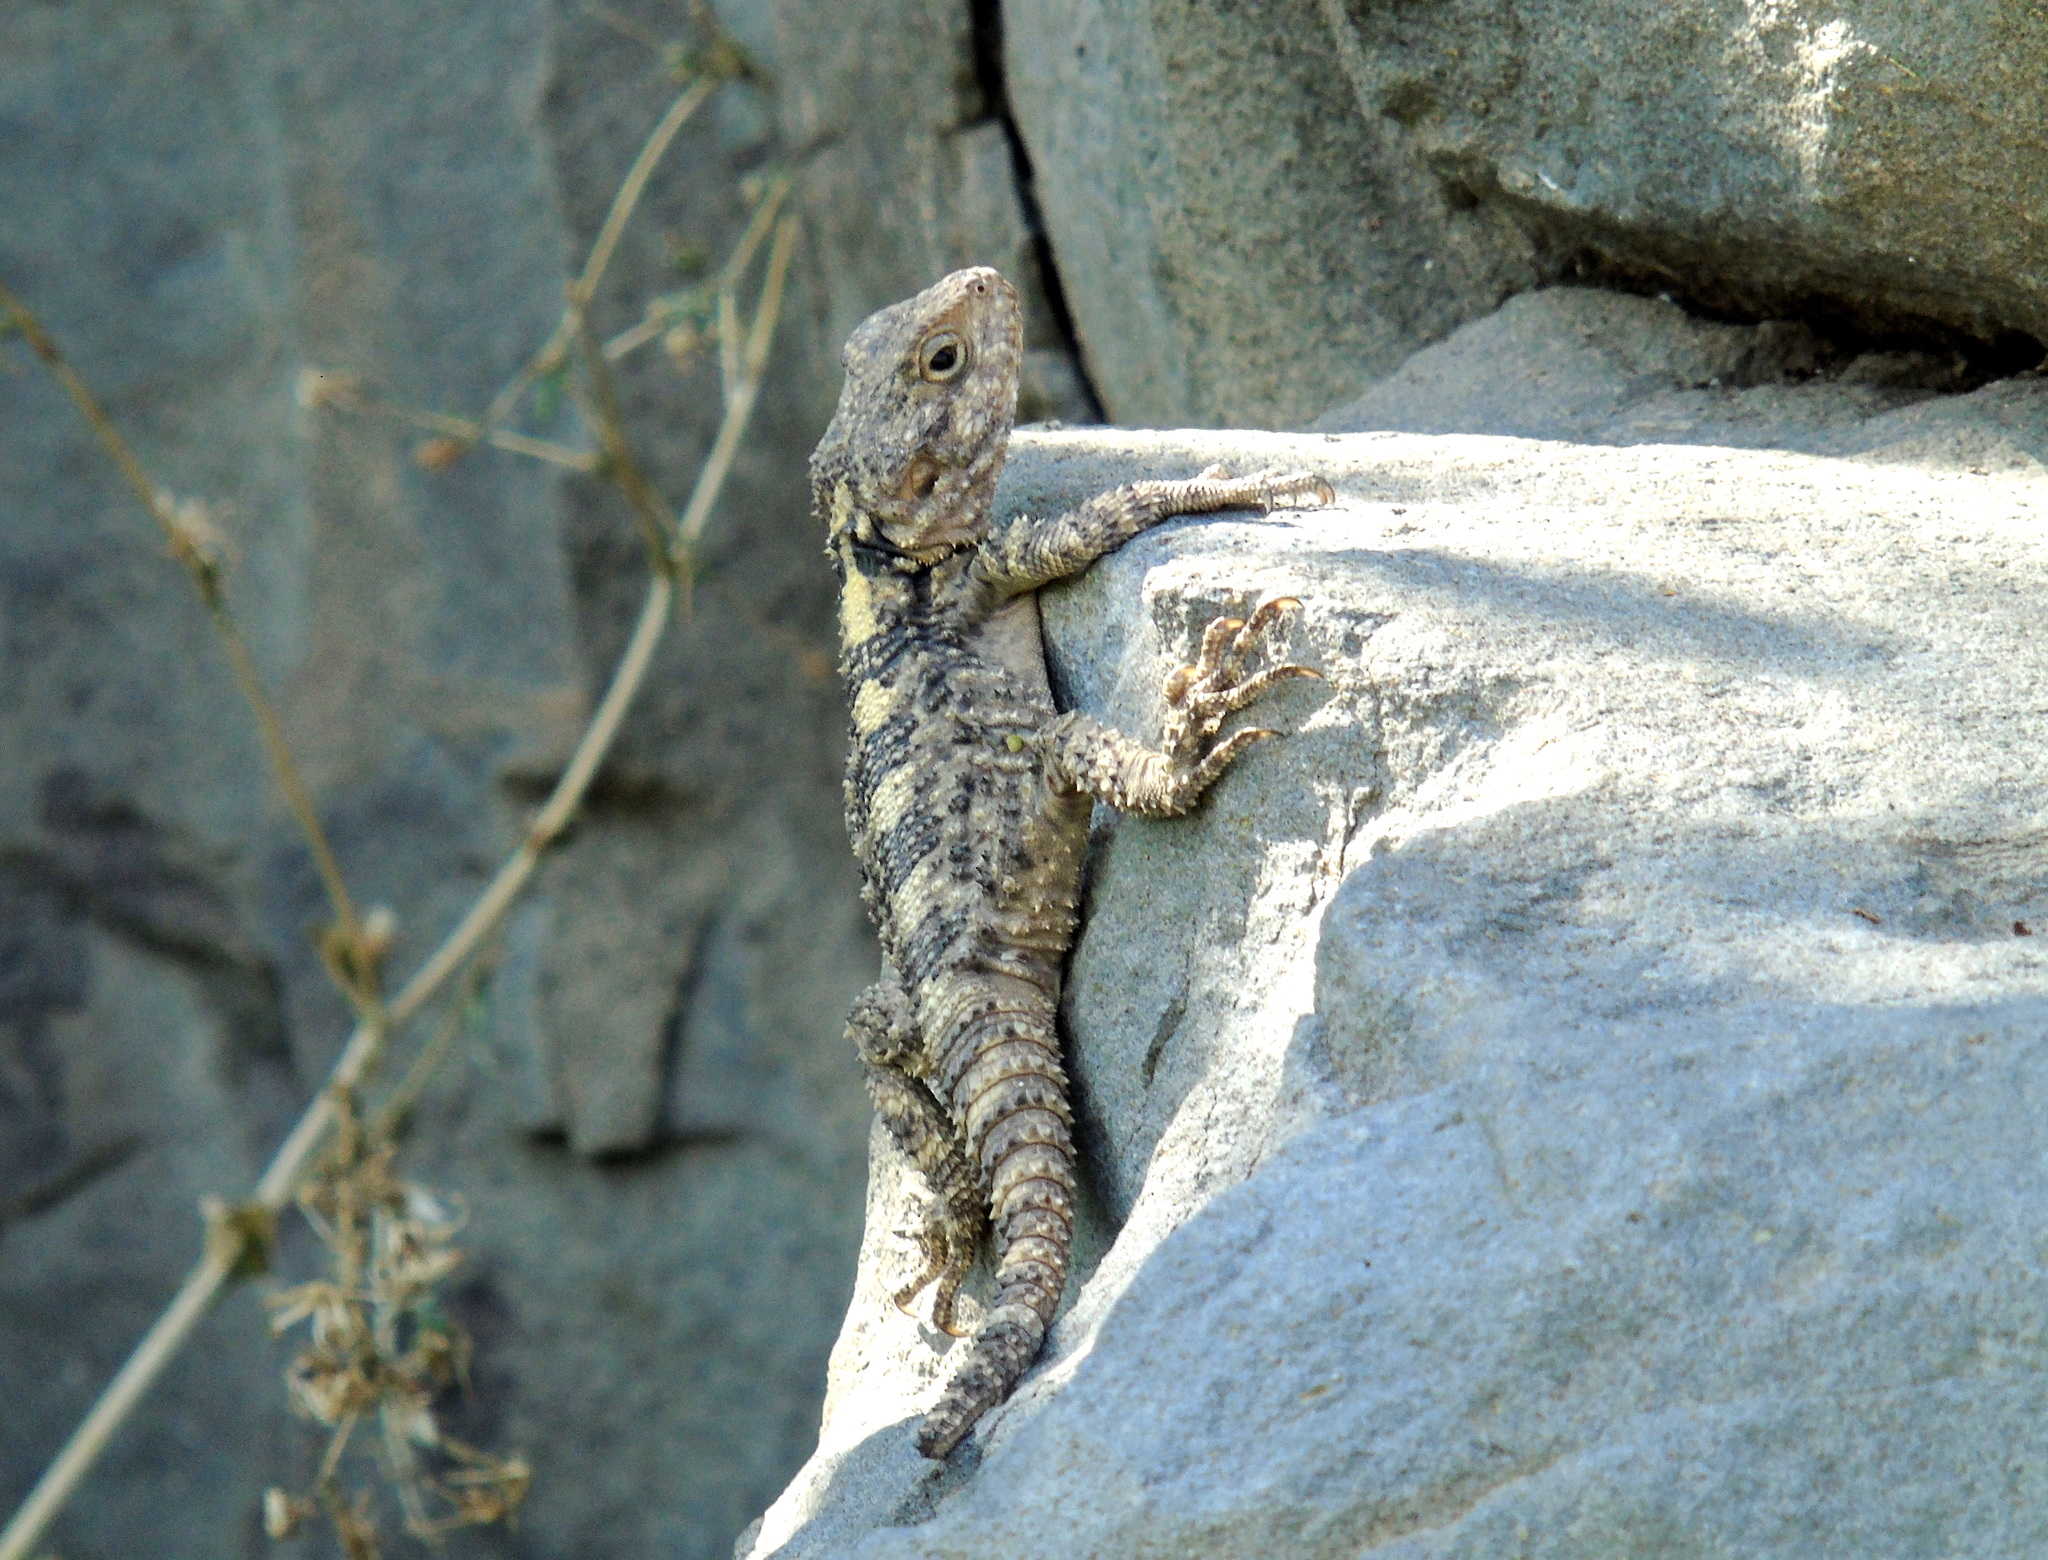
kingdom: Animalia
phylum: Chordata
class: Squamata
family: Agamidae
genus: Stellagama
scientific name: Stellagama stellio
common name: Starred agama
